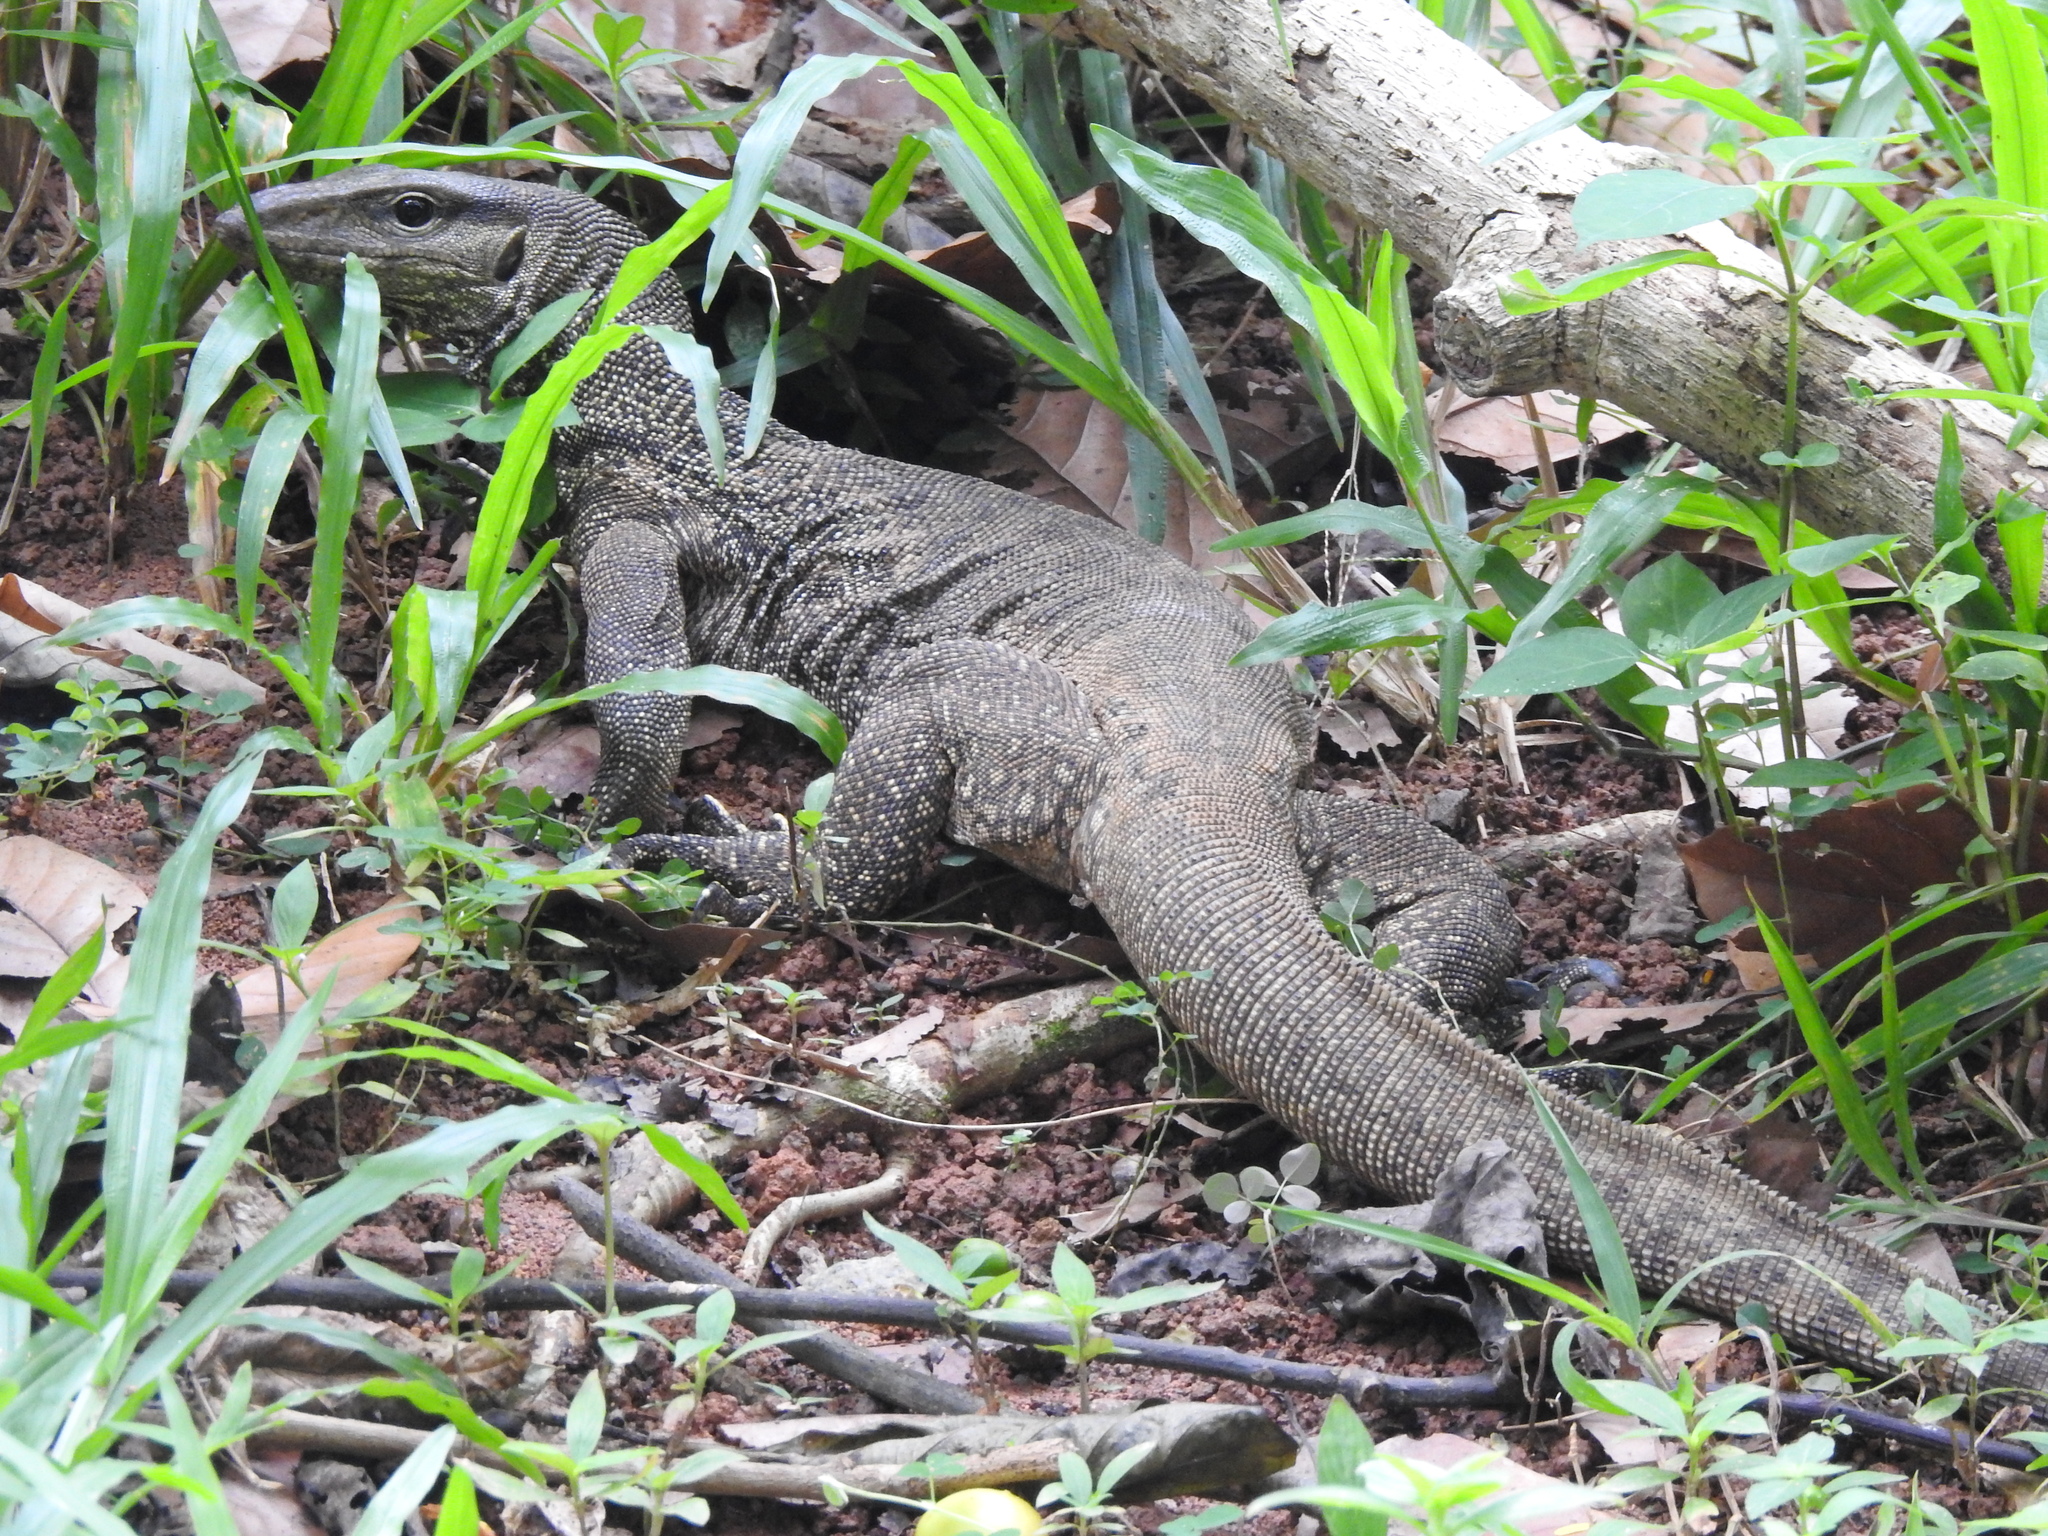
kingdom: Animalia
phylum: Chordata
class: Squamata
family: Varanidae
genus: Varanus
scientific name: Varanus nebulosus
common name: Clouded monitor
